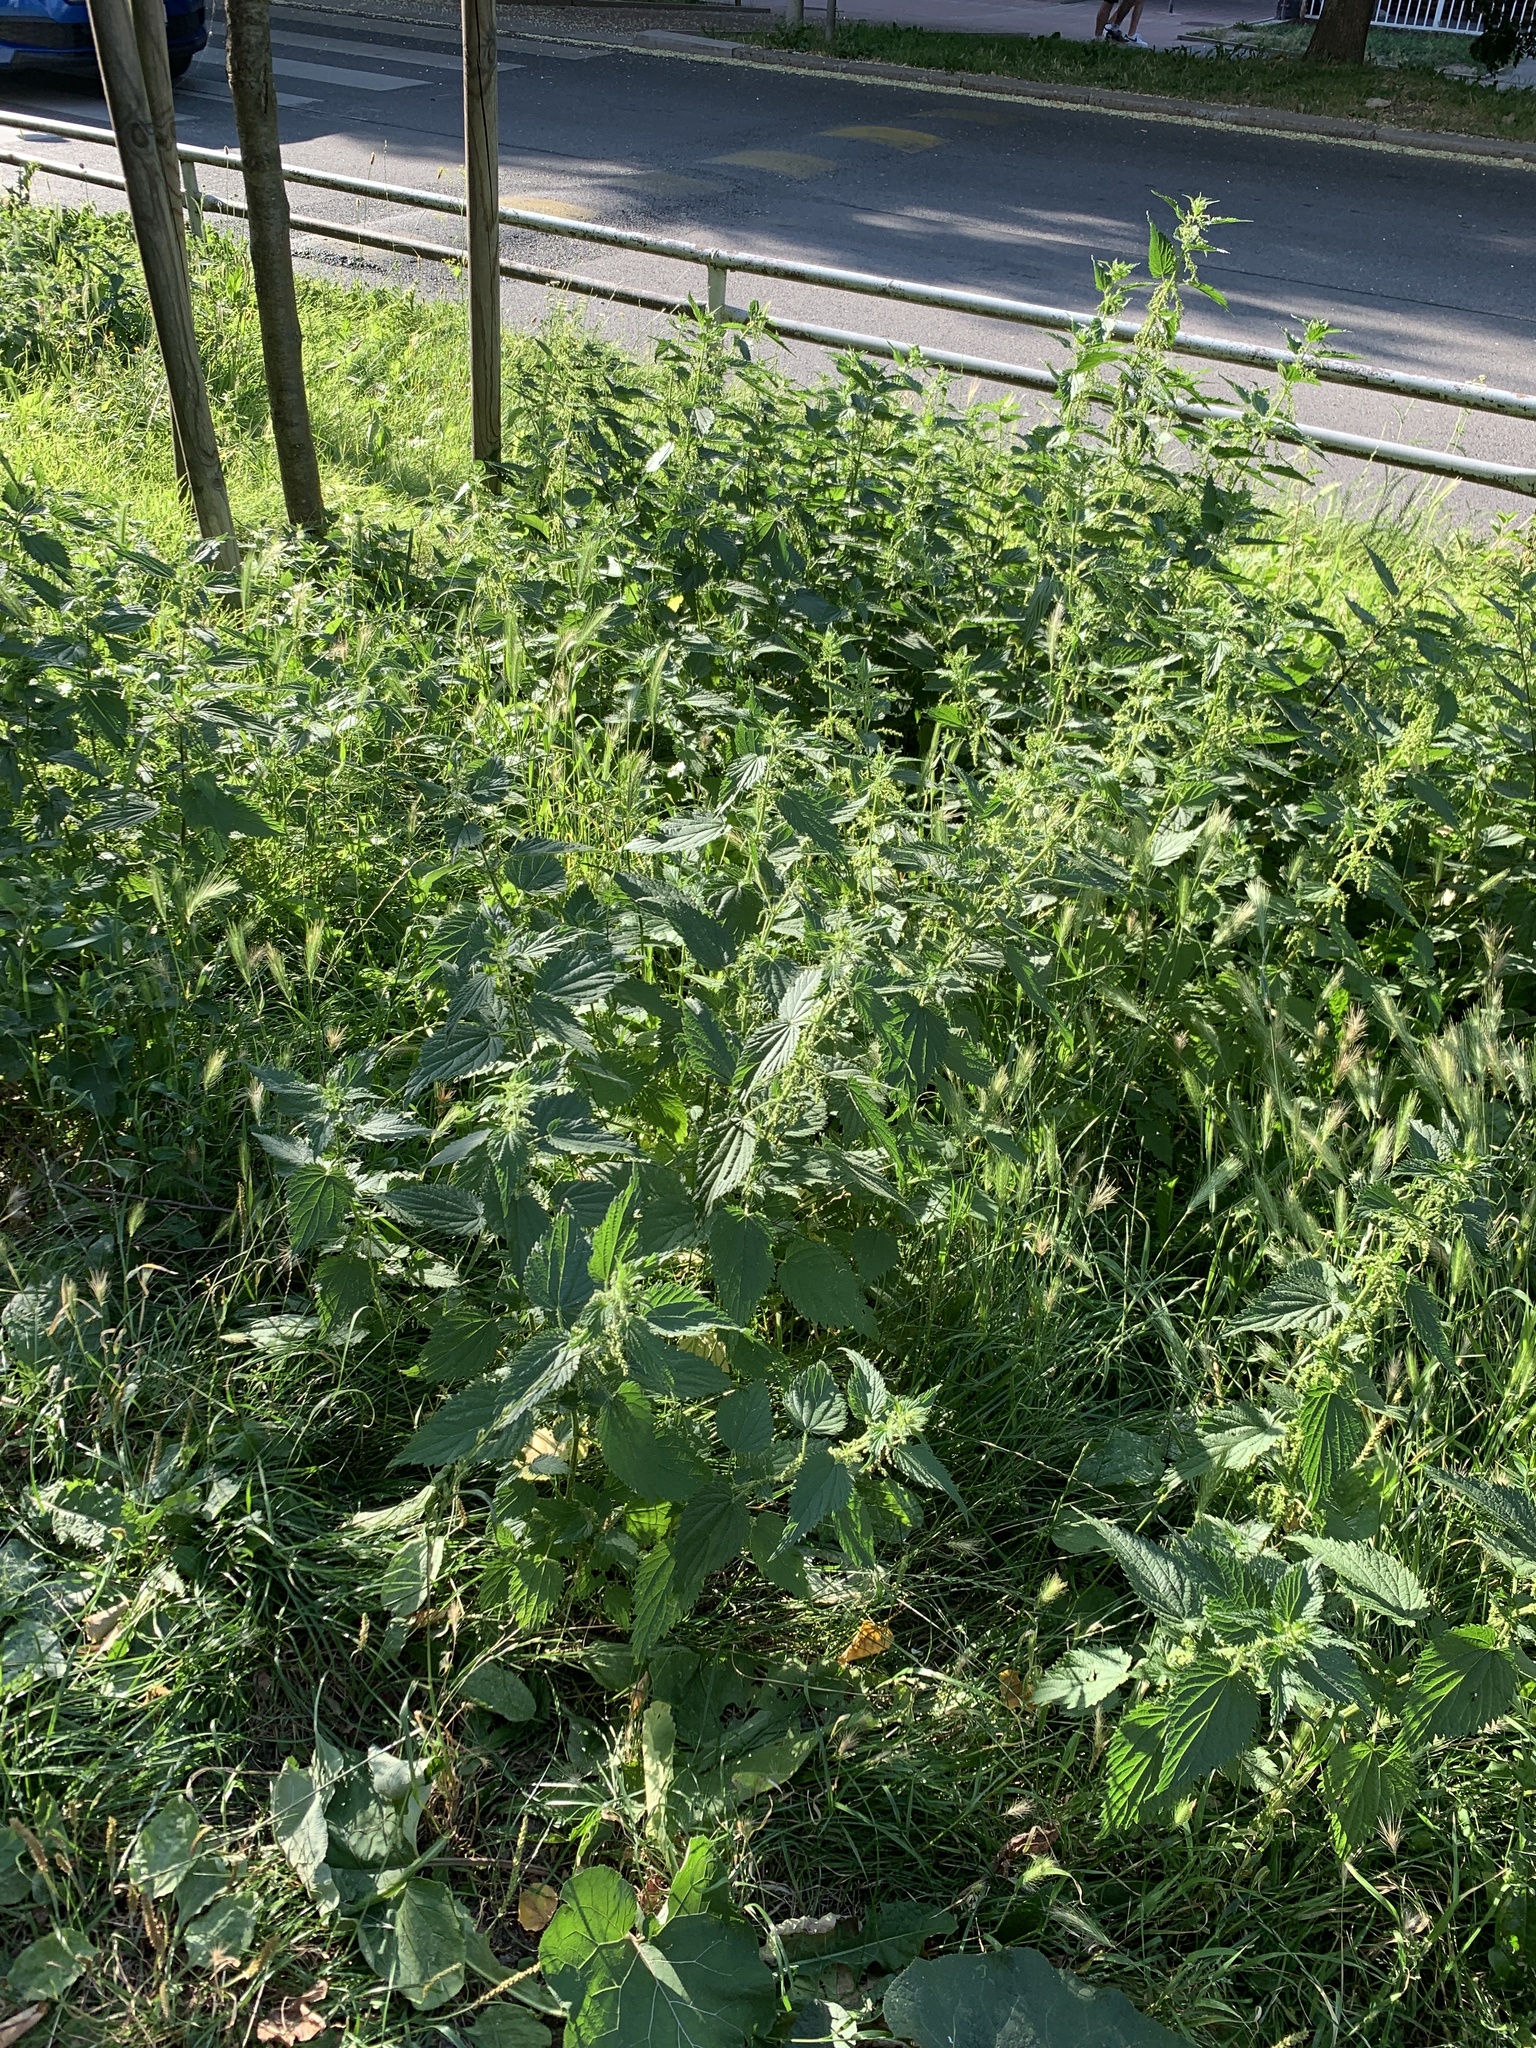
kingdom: Plantae
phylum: Tracheophyta
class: Magnoliopsida
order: Rosales
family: Urticaceae
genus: Urtica
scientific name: Urtica dioica
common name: Common nettle
